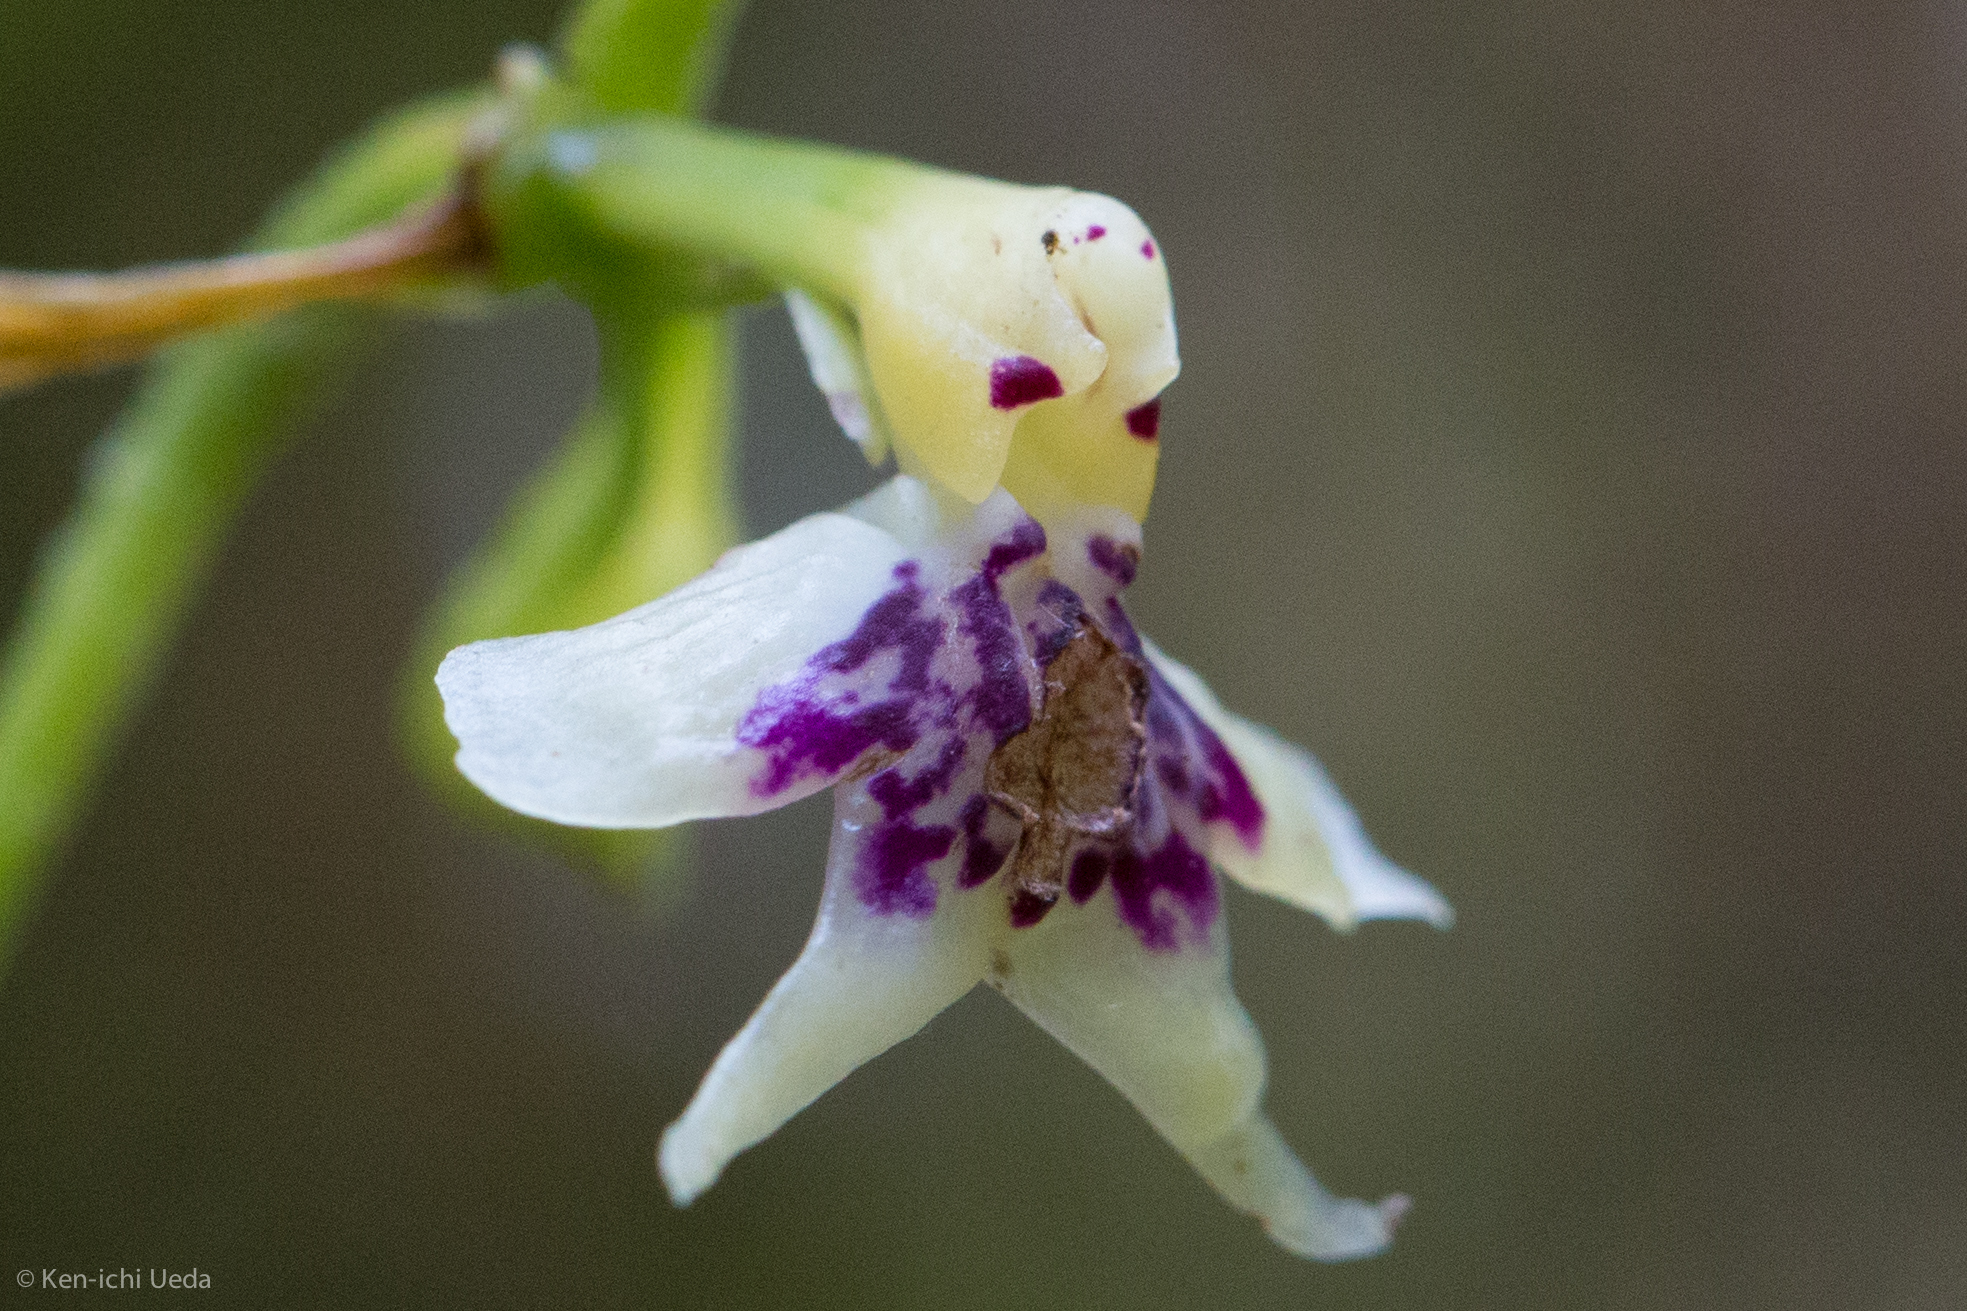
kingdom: Plantae
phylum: Tracheophyta
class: Liliopsida
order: Asparagales
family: Orchidaceae
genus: Epidendrum
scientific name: Epidendrum piliferum
